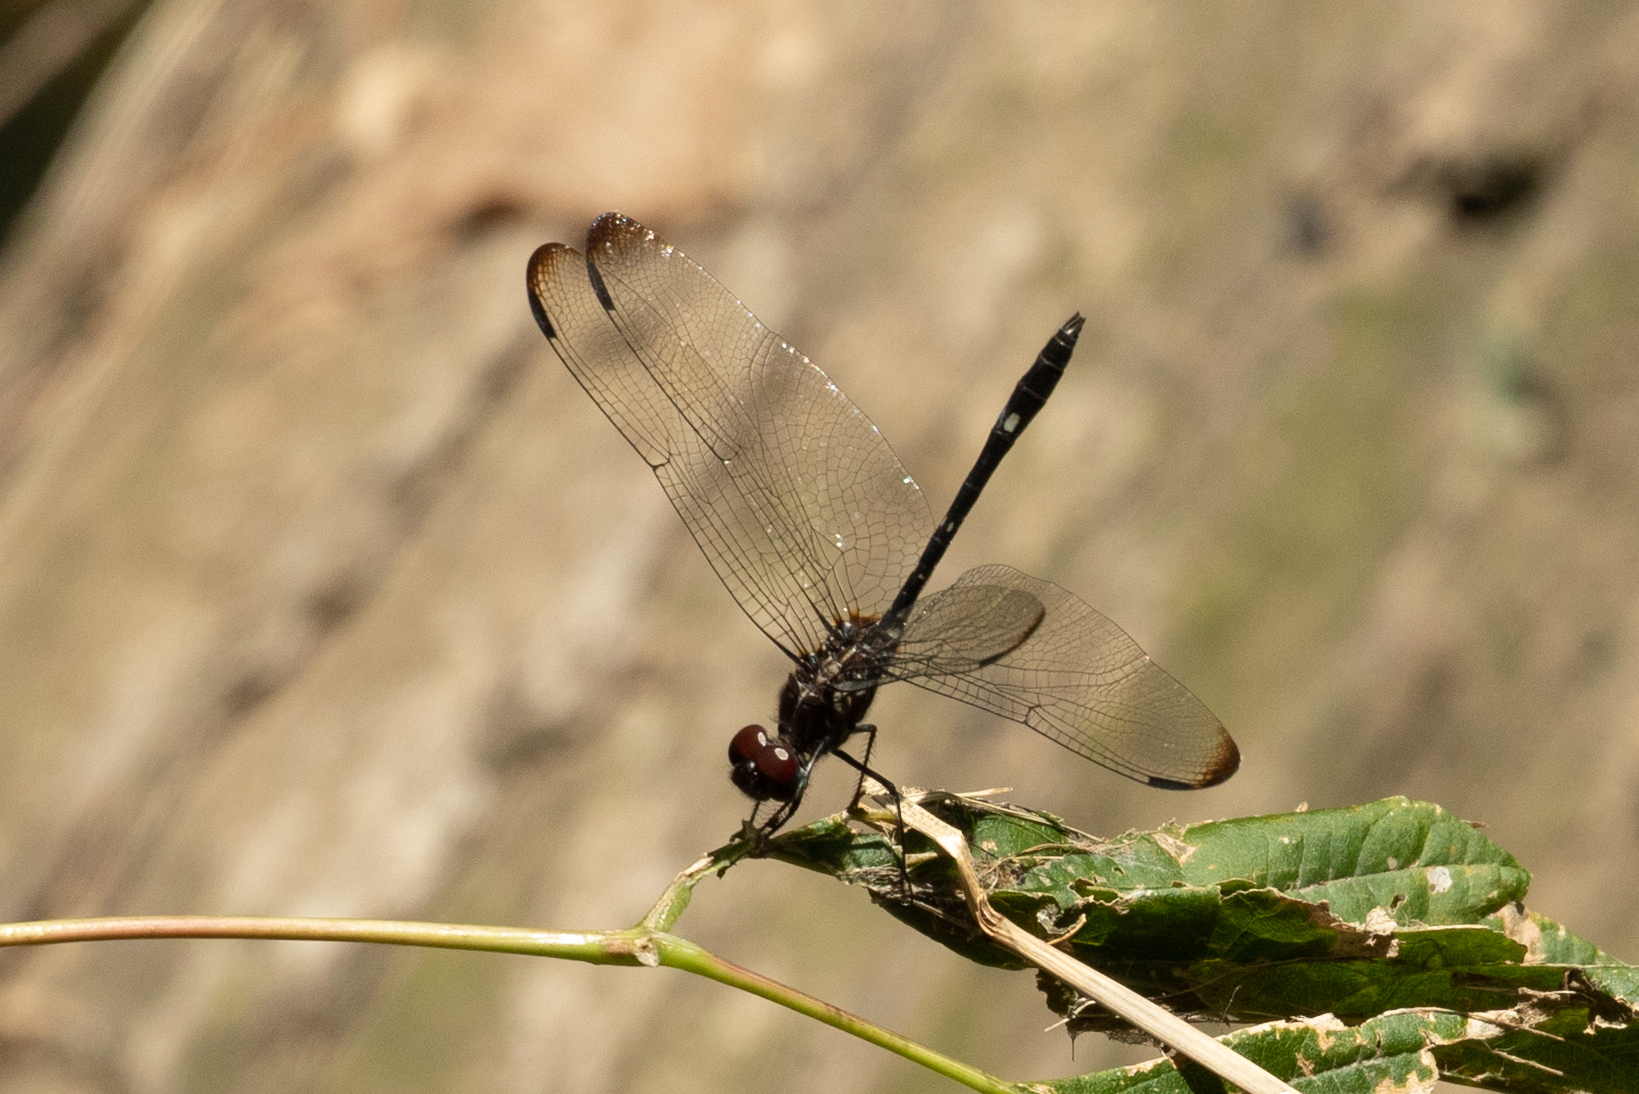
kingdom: Animalia
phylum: Arthropoda
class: Insecta
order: Odonata
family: Libellulidae
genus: Dythemis
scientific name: Dythemis velox
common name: Swift setwing
